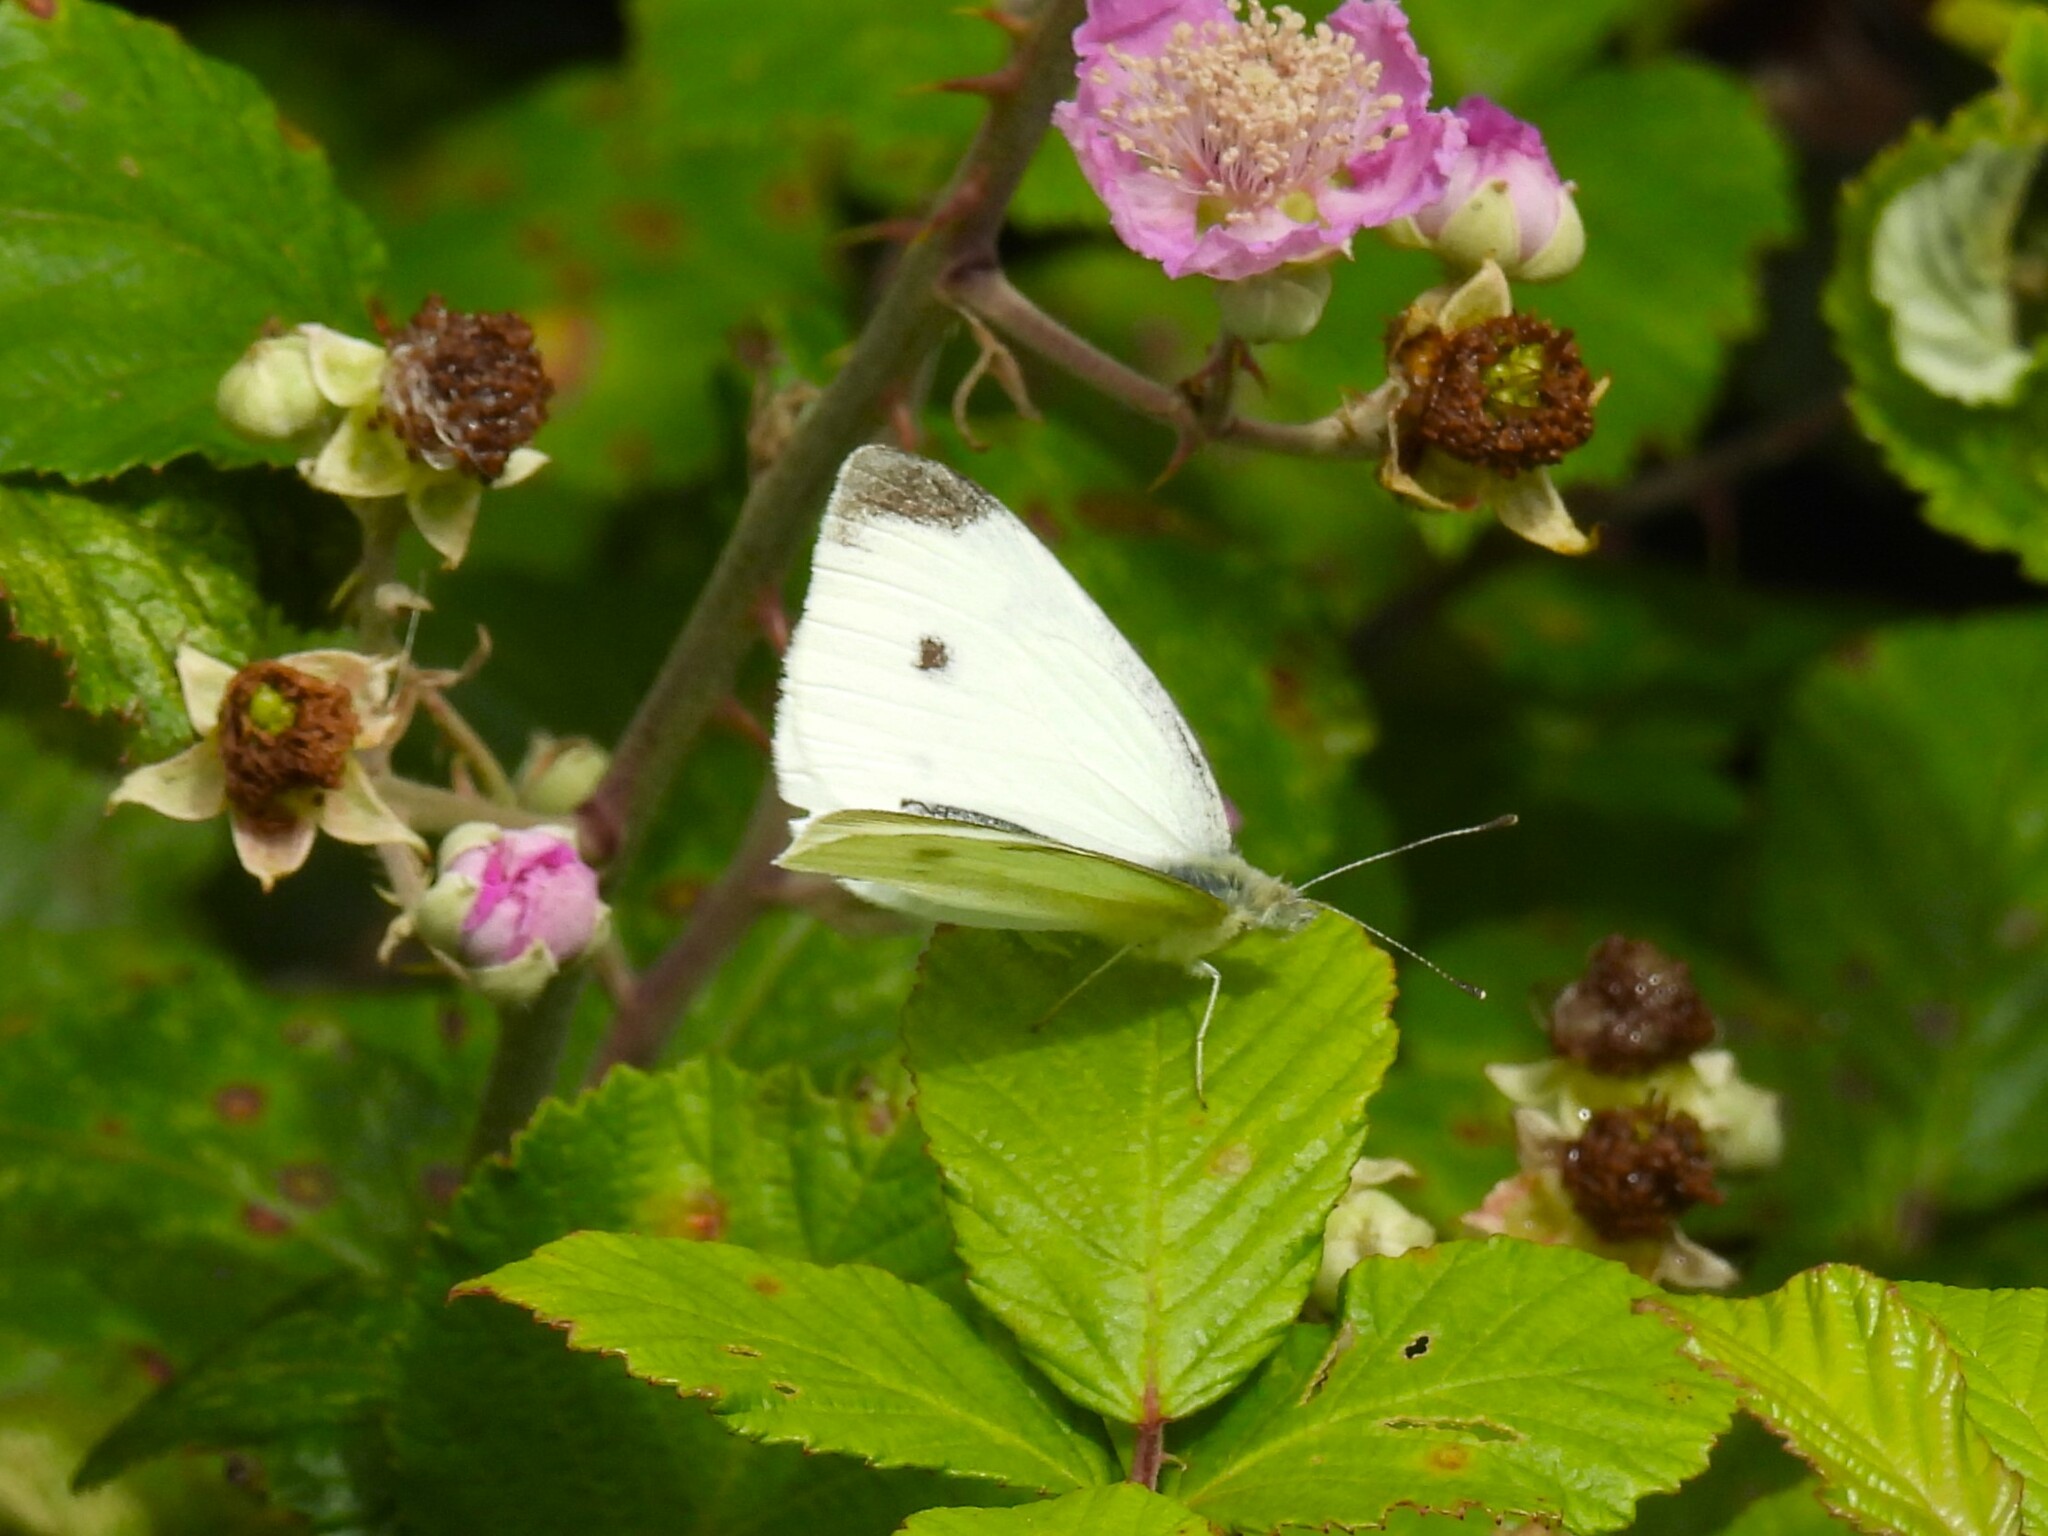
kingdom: Animalia
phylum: Arthropoda
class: Insecta
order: Lepidoptera
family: Pieridae
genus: Pieris
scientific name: Pieris rapae
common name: Small white
